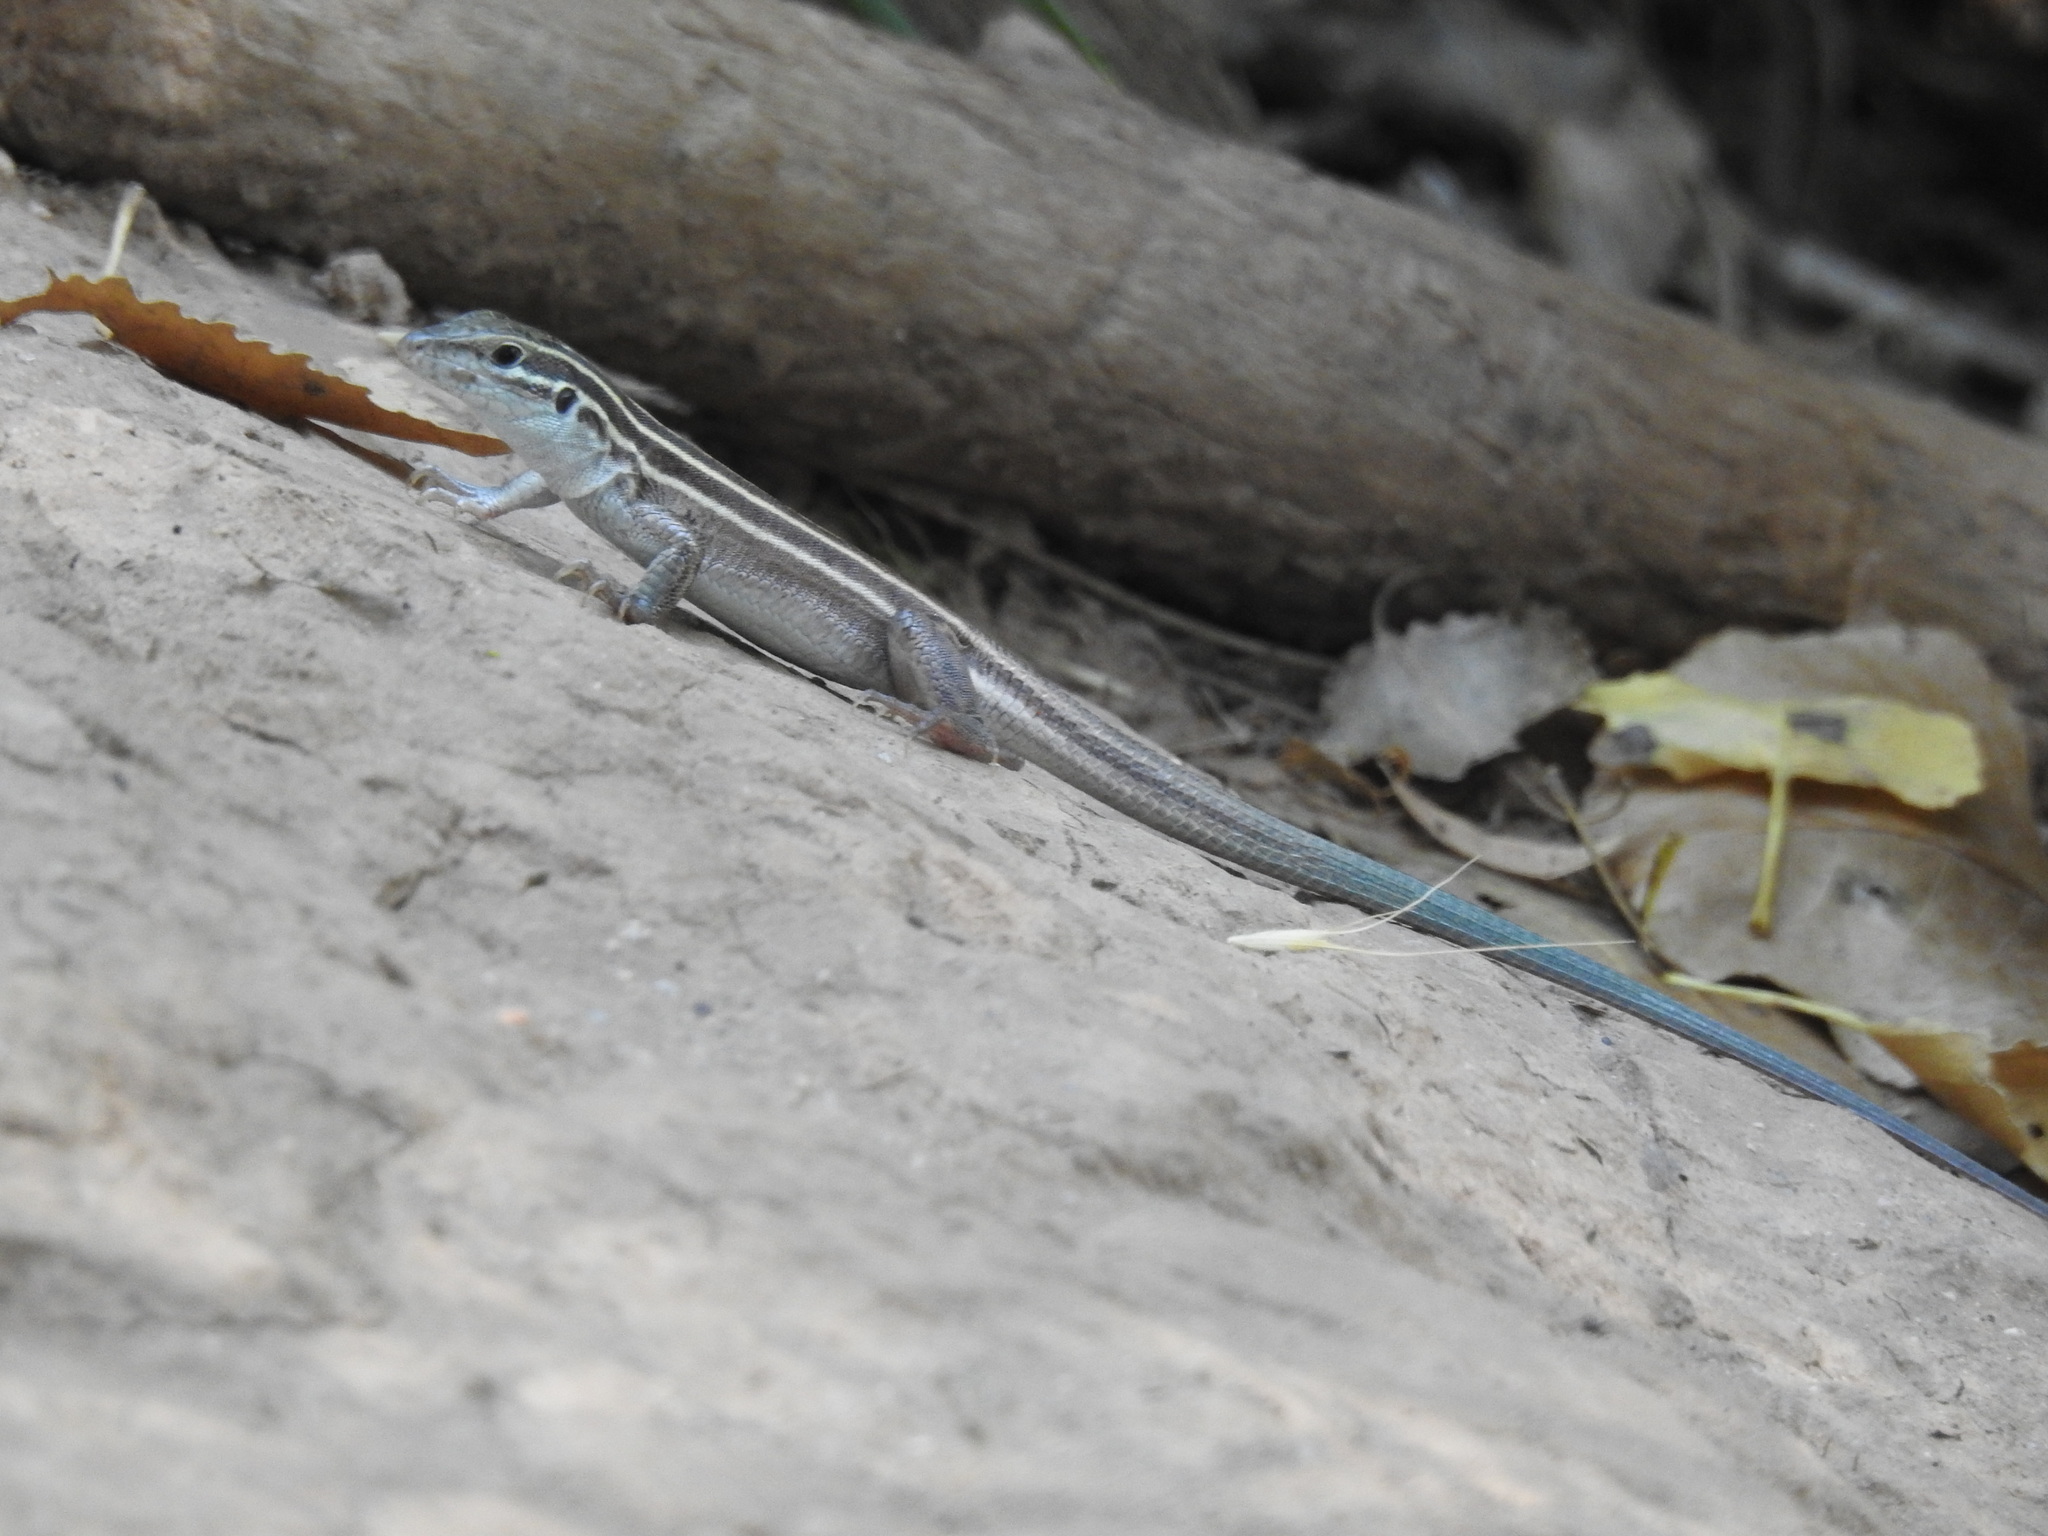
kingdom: Animalia
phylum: Chordata
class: Squamata
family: Teiidae
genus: Aspidoscelis
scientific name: Aspidoscelis uniparens
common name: Desert grassland whiptail
